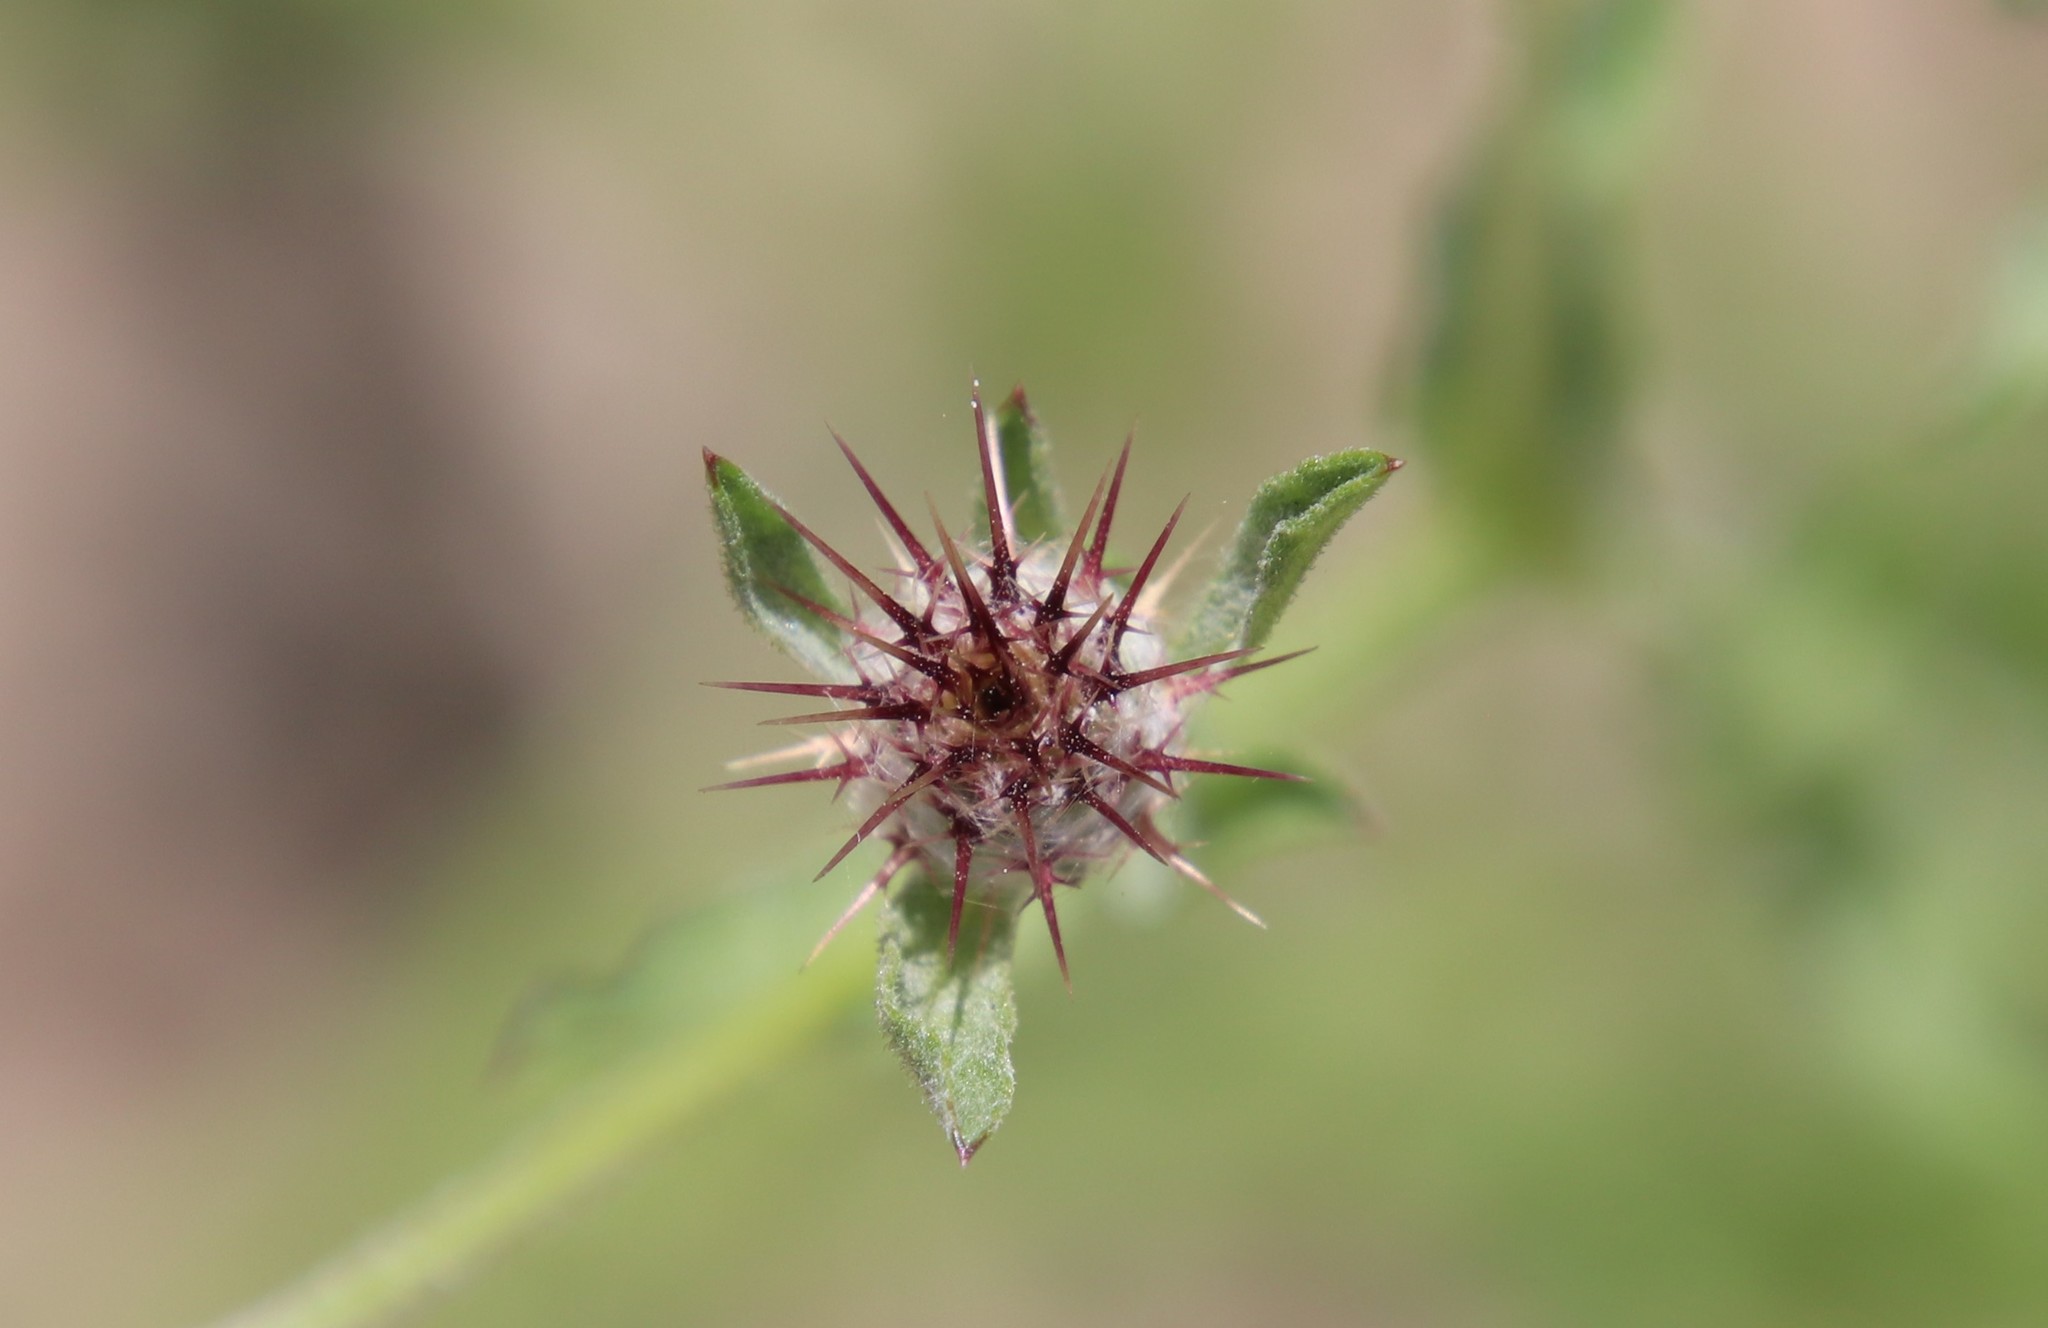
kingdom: Plantae
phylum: Tracheophyta
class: Magnoliopsida
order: Asterales
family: Asteraceae
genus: Centaurea
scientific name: Centaurea melitensis
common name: Maltese star-thistle
